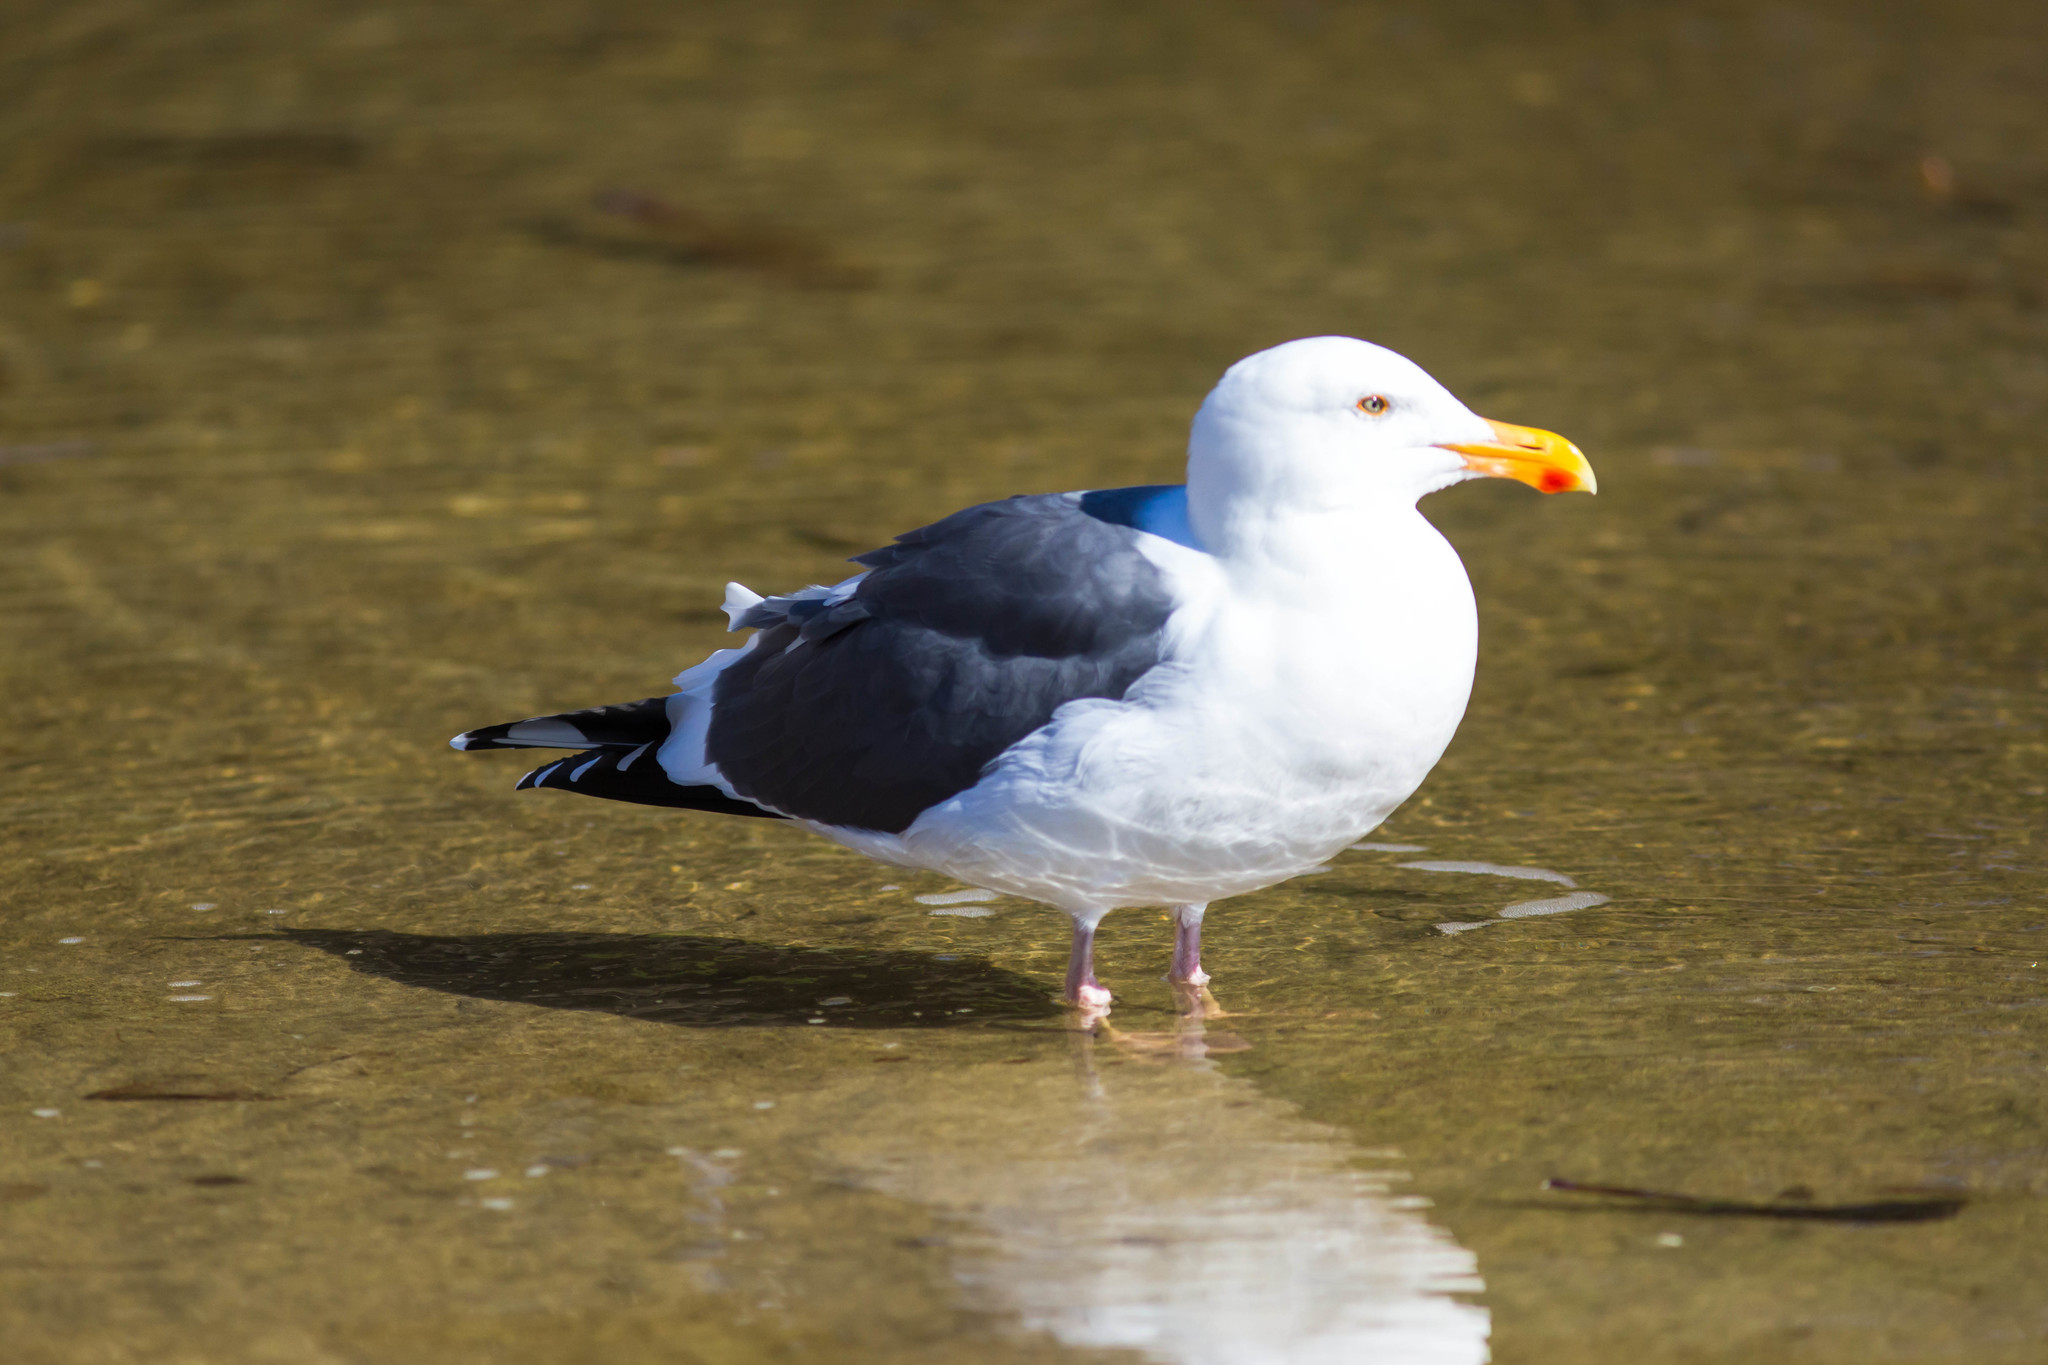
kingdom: Animalia
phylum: Chordata
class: Aves
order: Charadriiformes
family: Laridae
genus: Larus
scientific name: Larus occidentalis
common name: Western gull
